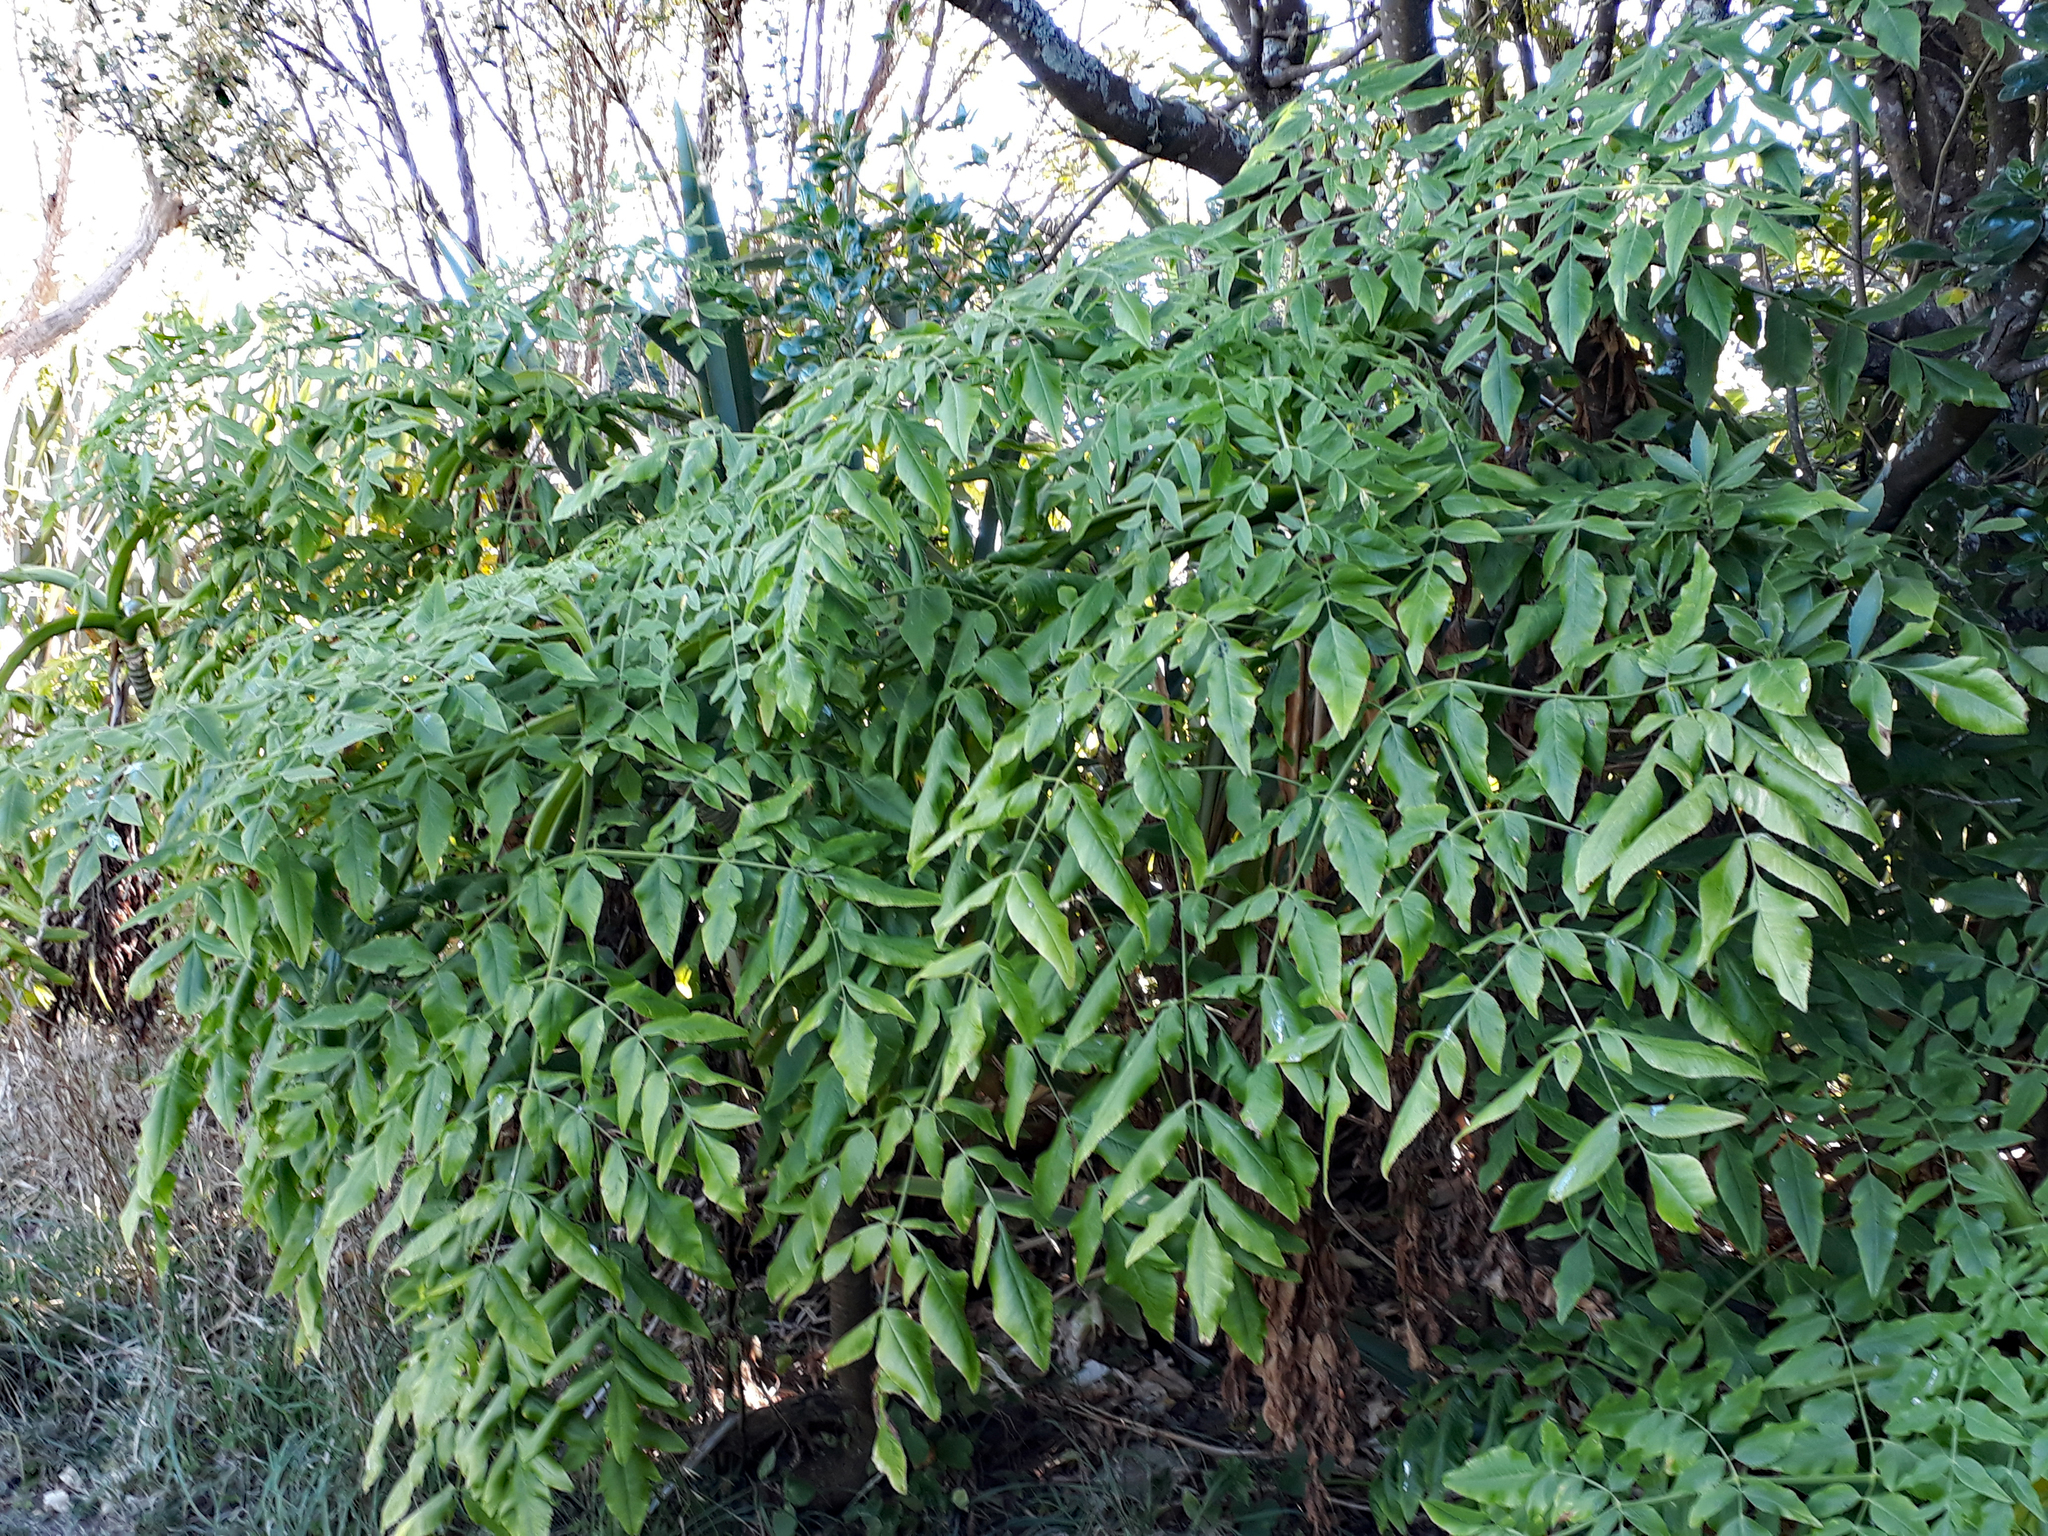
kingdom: Plantae
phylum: Tracheophyta
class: Magnoliopsida
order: Apiales
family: Apiaceae
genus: Daucus
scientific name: Daucus decipiens
